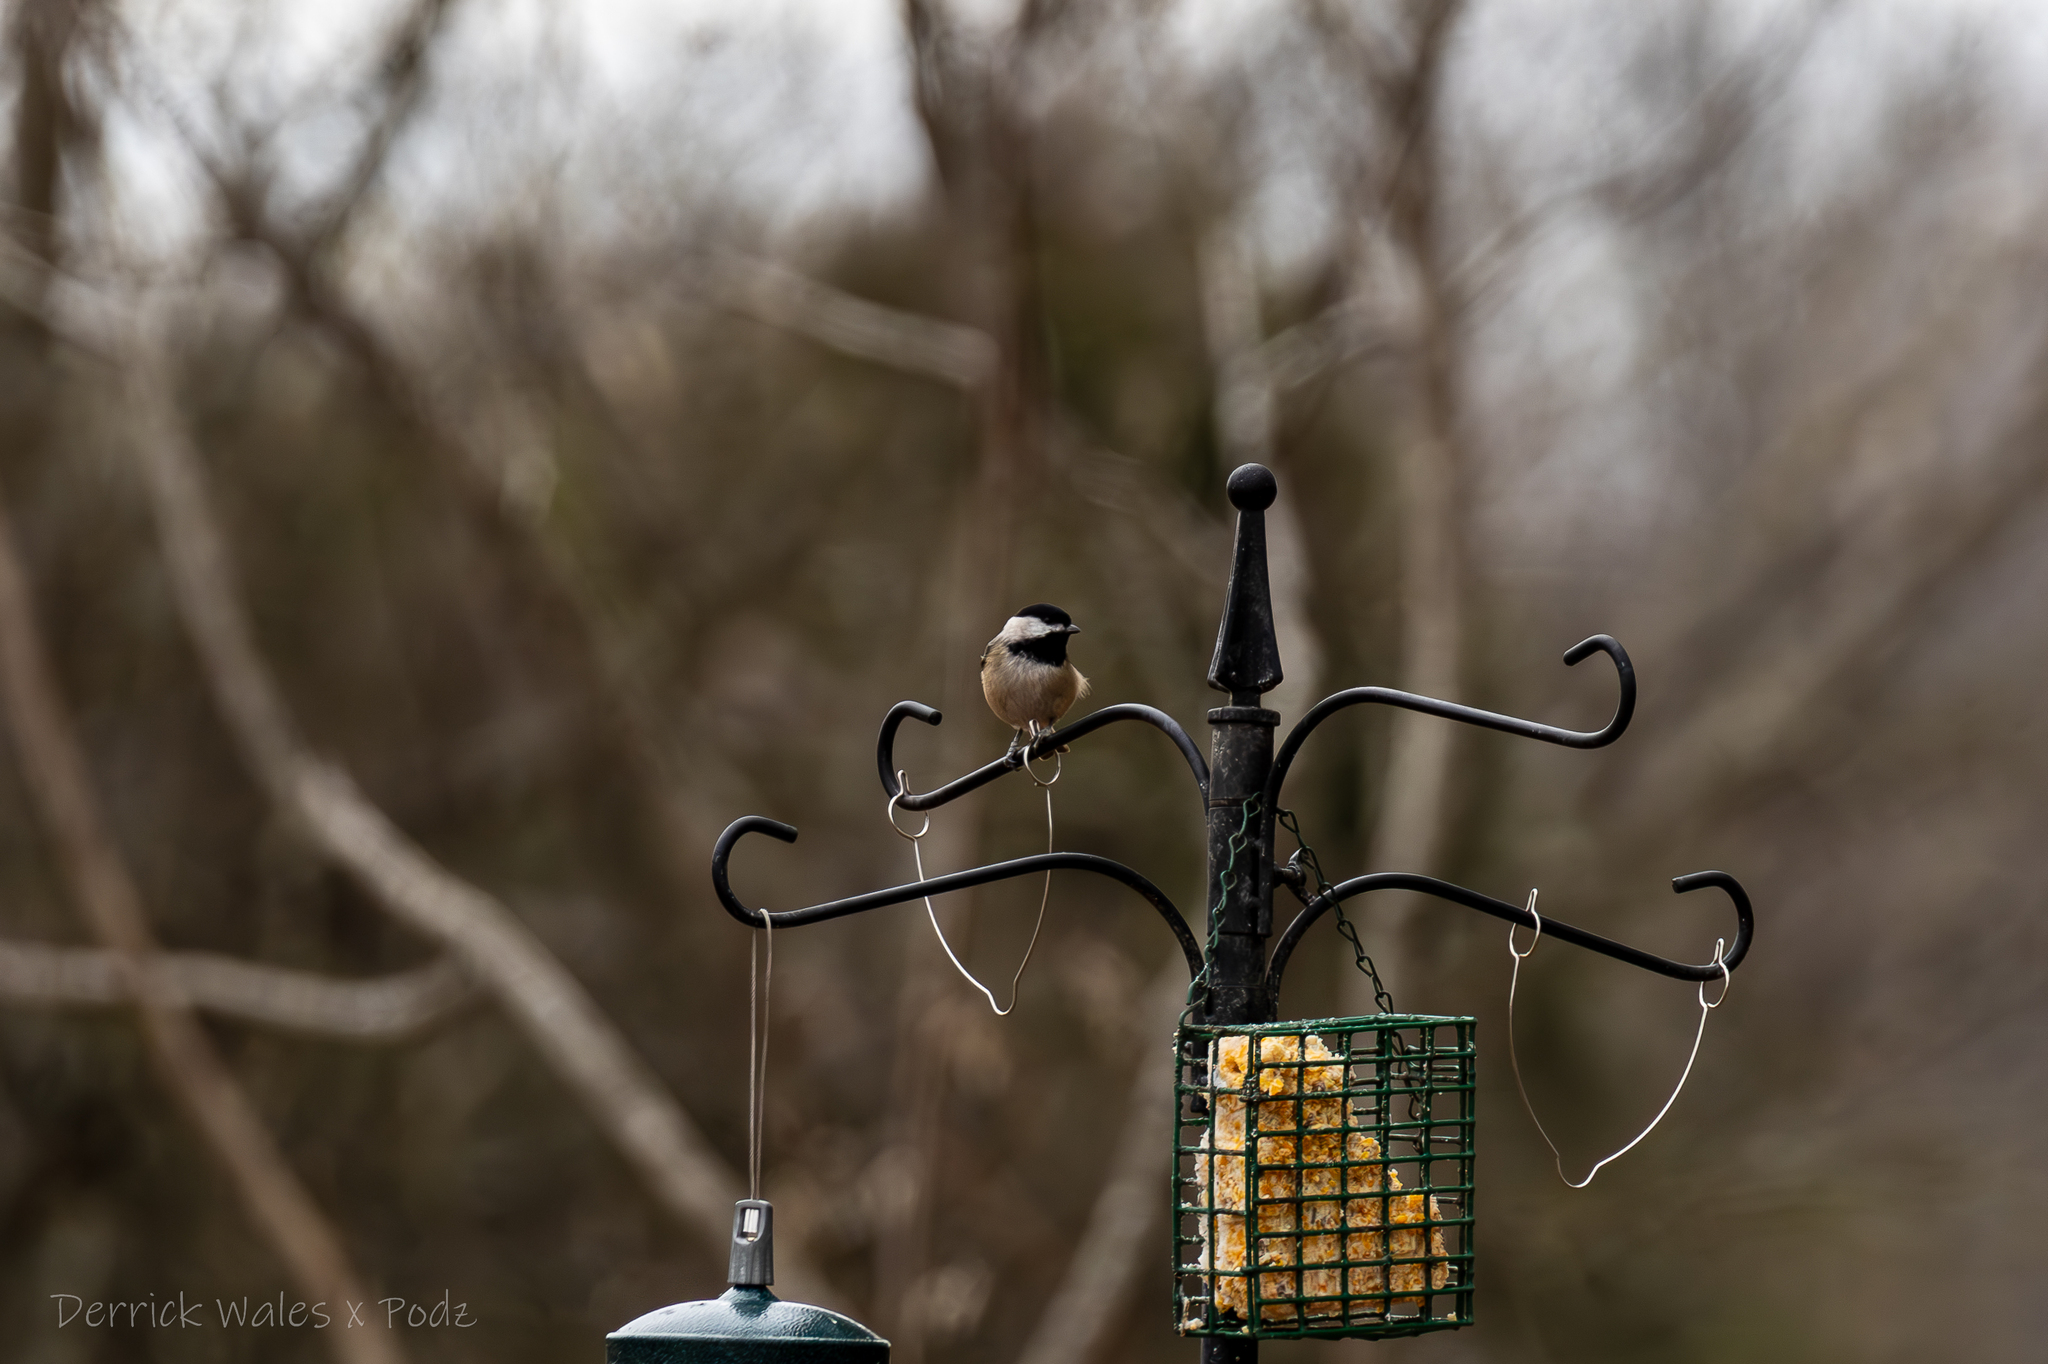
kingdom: Animalia
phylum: Chordata
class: Aves
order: Passeriformes
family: Paridae
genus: Poecile
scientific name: Poecile carolinensis
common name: Carolina chickadee
